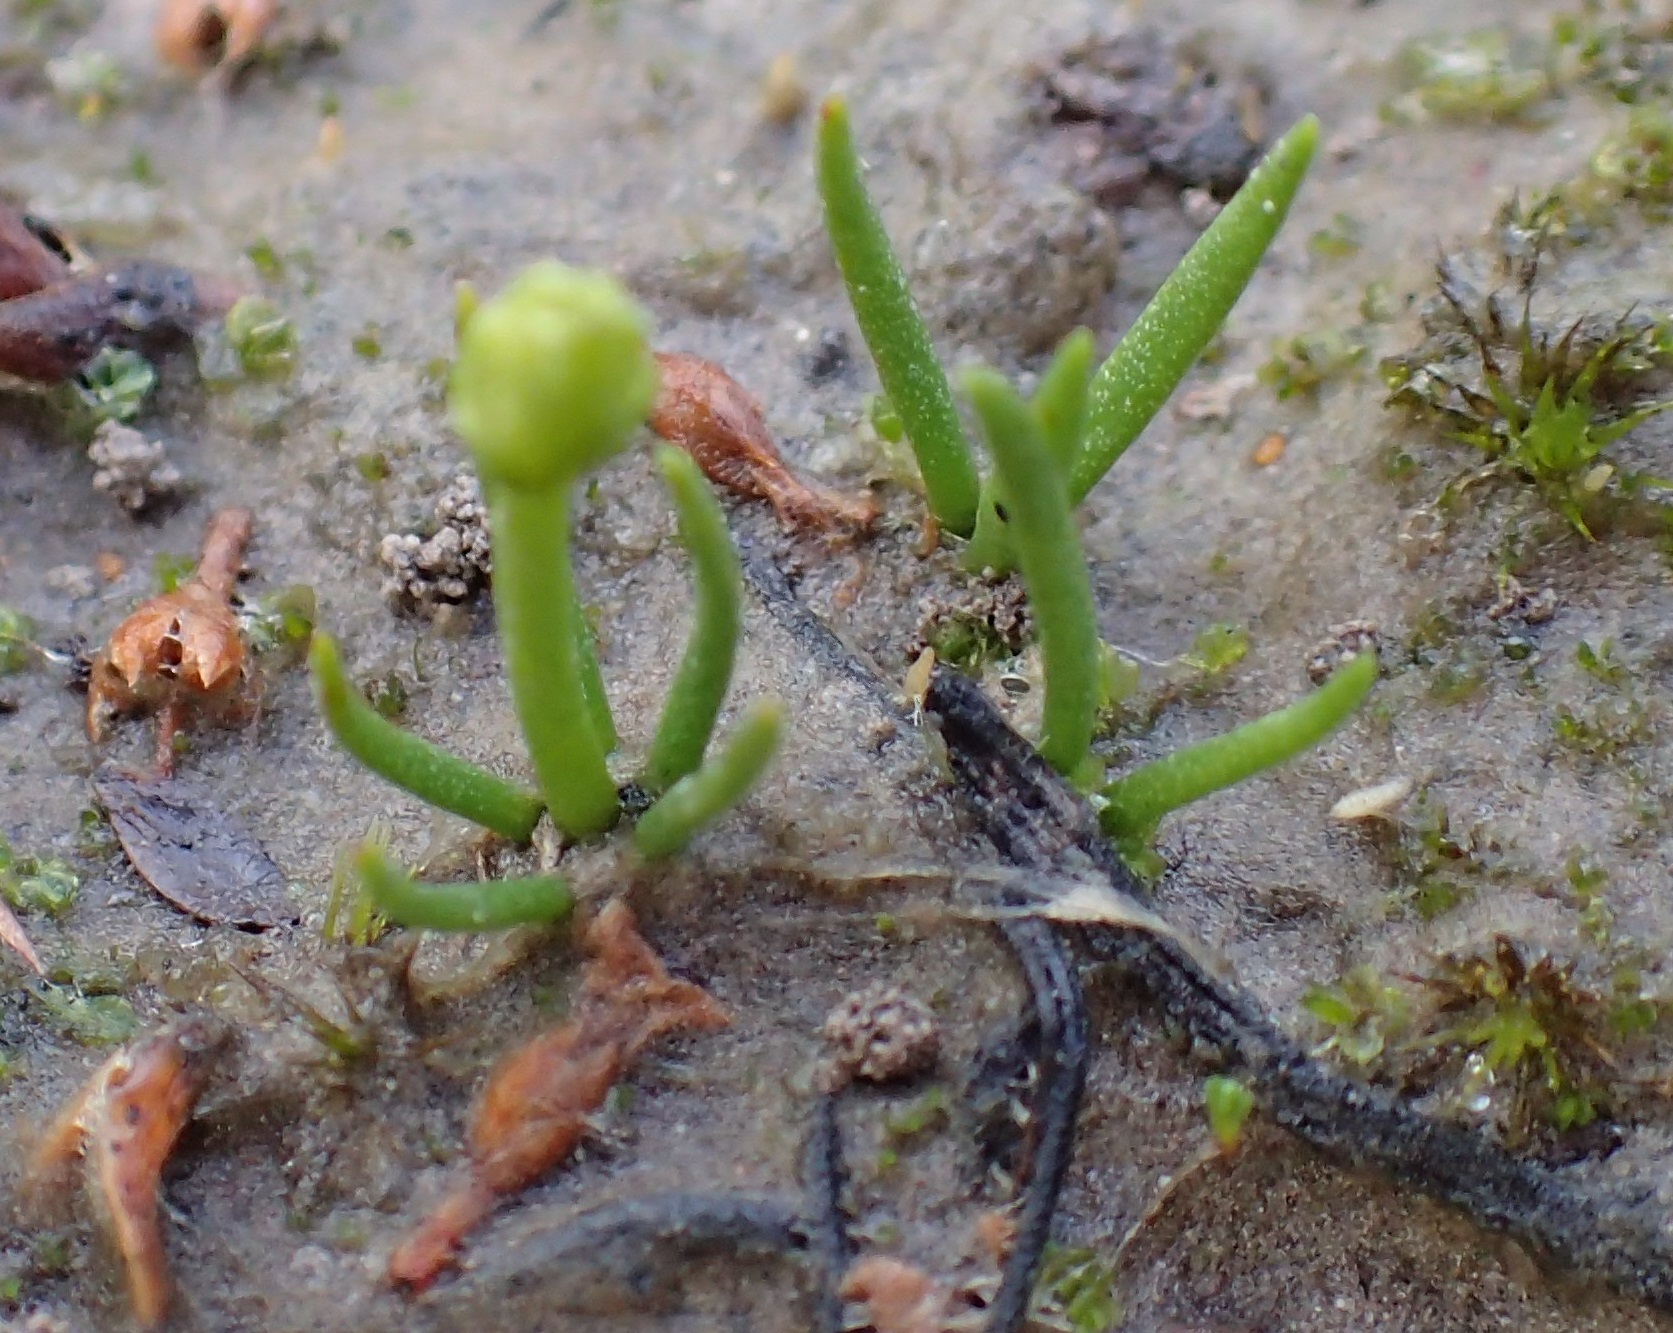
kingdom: Plantae
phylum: Tracheophyta
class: Lycopodiopsida
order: Lycopodiales
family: Lycopodiaceae
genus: Phylloglossum
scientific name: Phylloglossum drummondii
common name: Pigmy-club-moss
